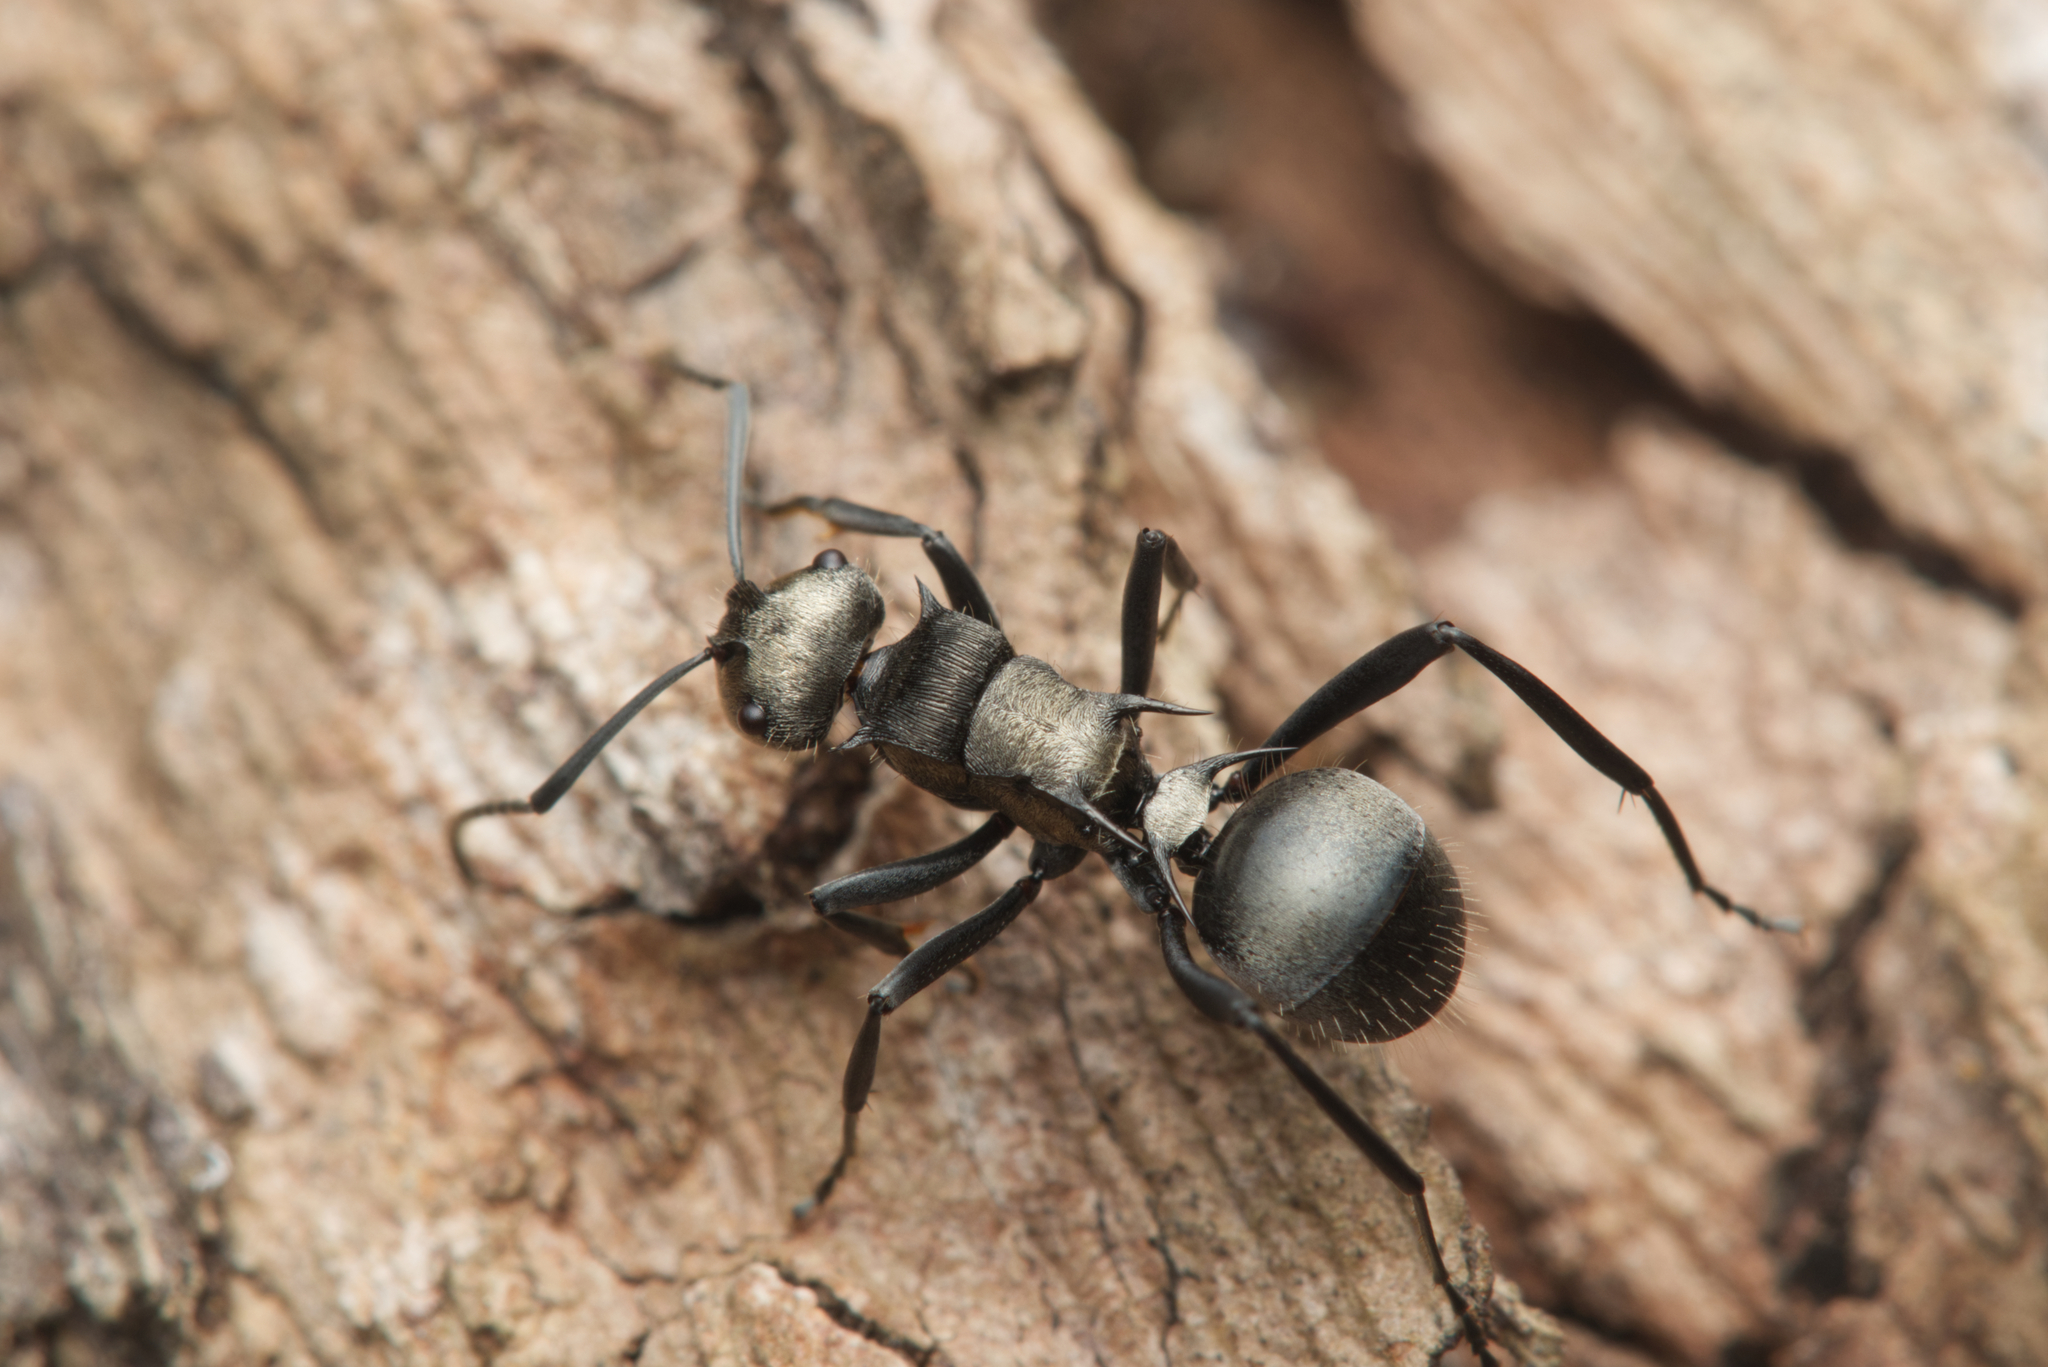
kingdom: Animalia
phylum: Arthropoda
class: Insecta
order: Hymenoptera
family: Formicidae
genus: Polyrhachis
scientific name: Polyrhachis daemeli
